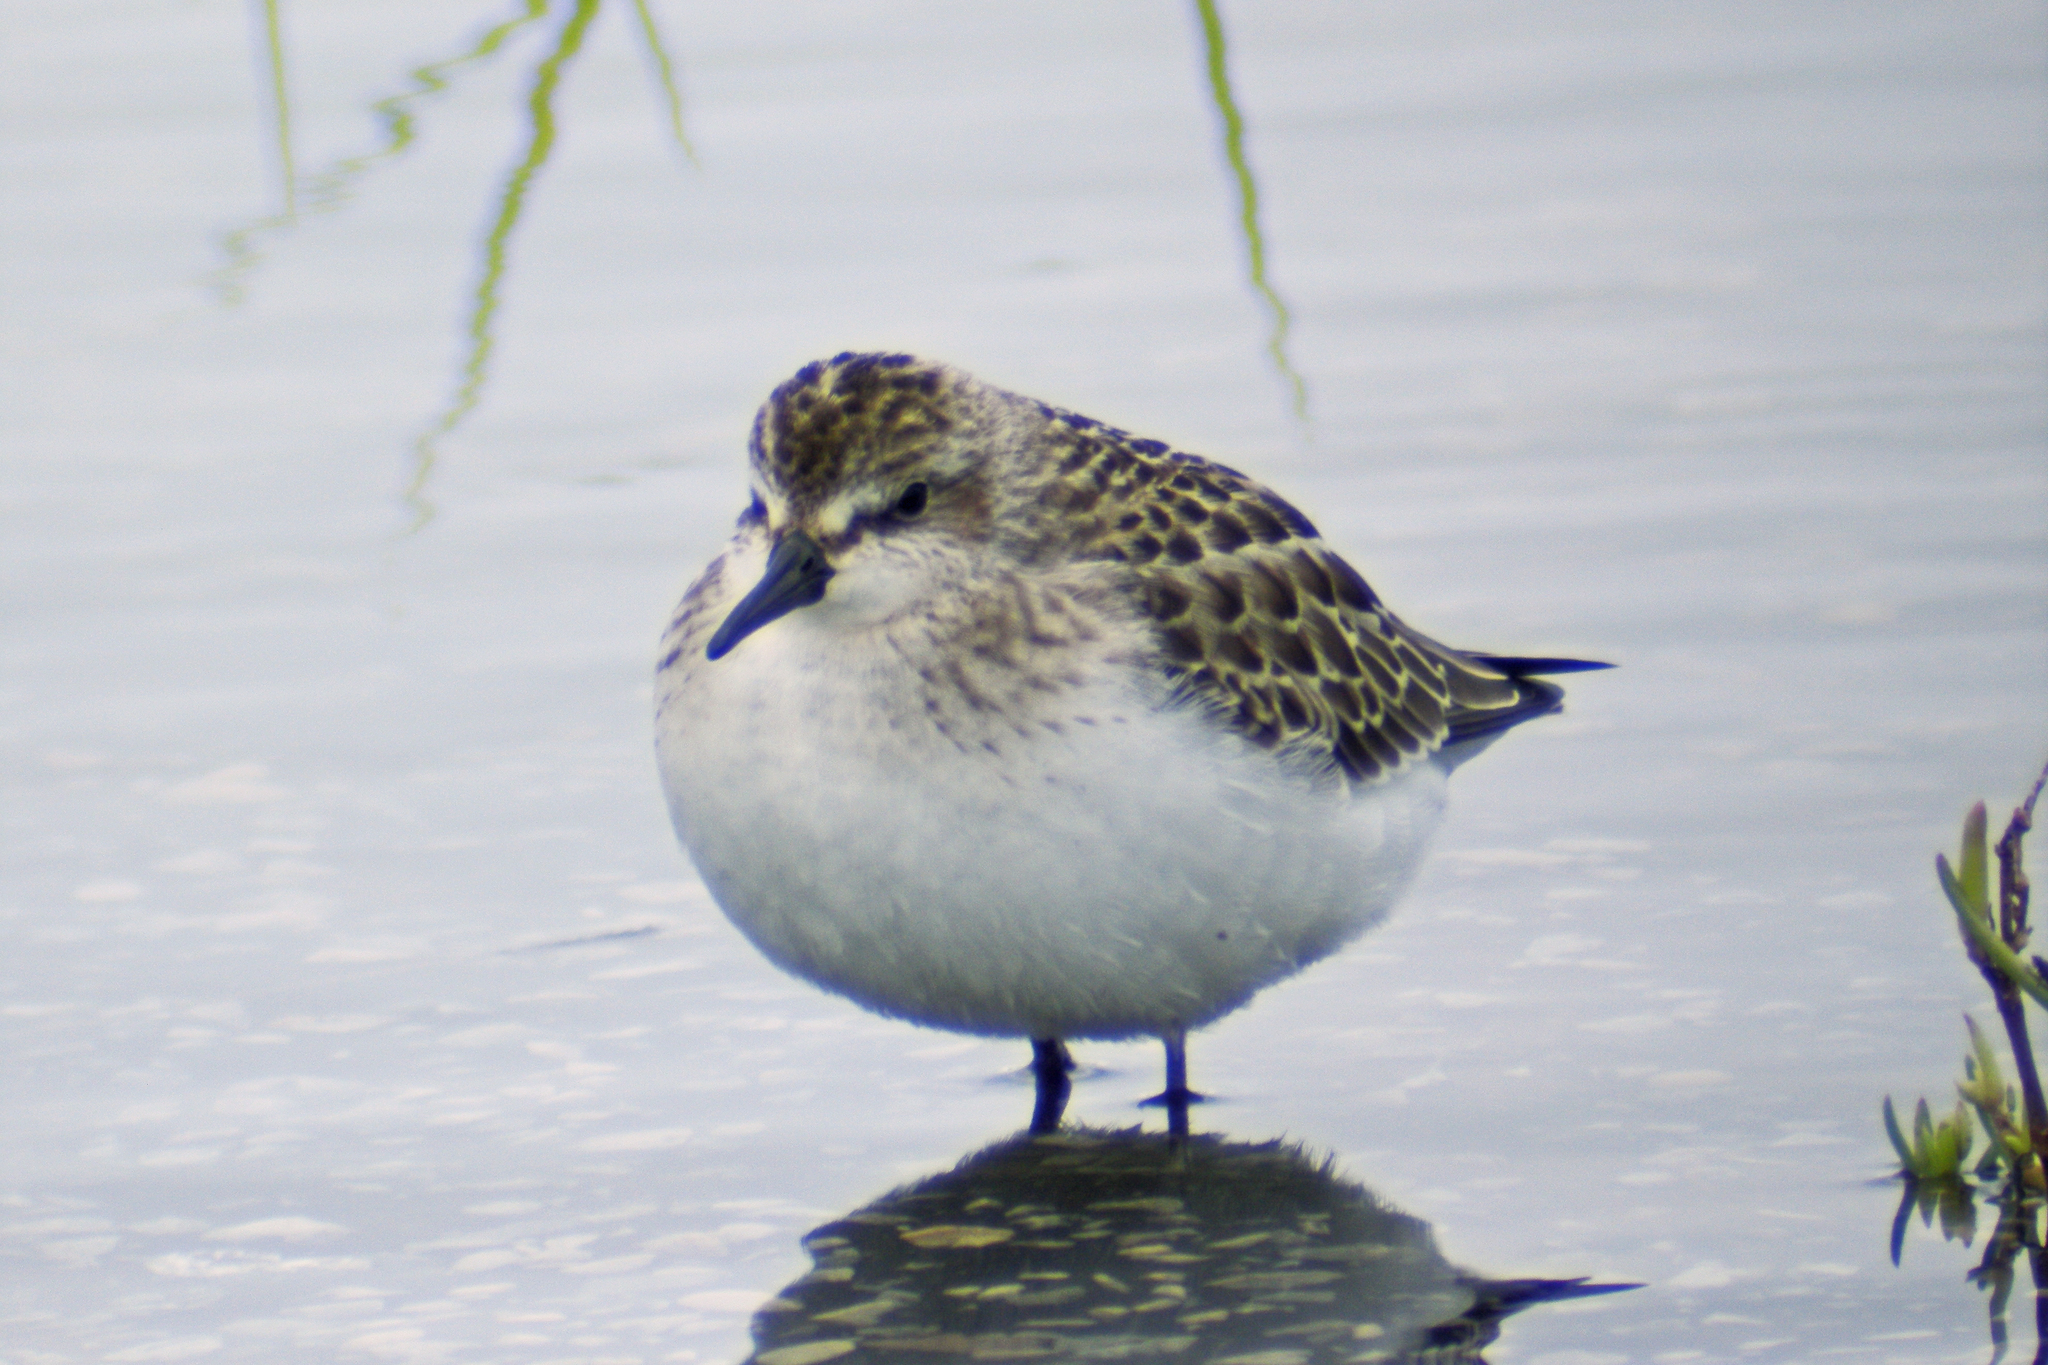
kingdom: Animalia
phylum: Chordata
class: Aves
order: Charadriiformes
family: Scolopacidae
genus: Calidris
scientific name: Calidris pusilla
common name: Semipalmated sandpiper
